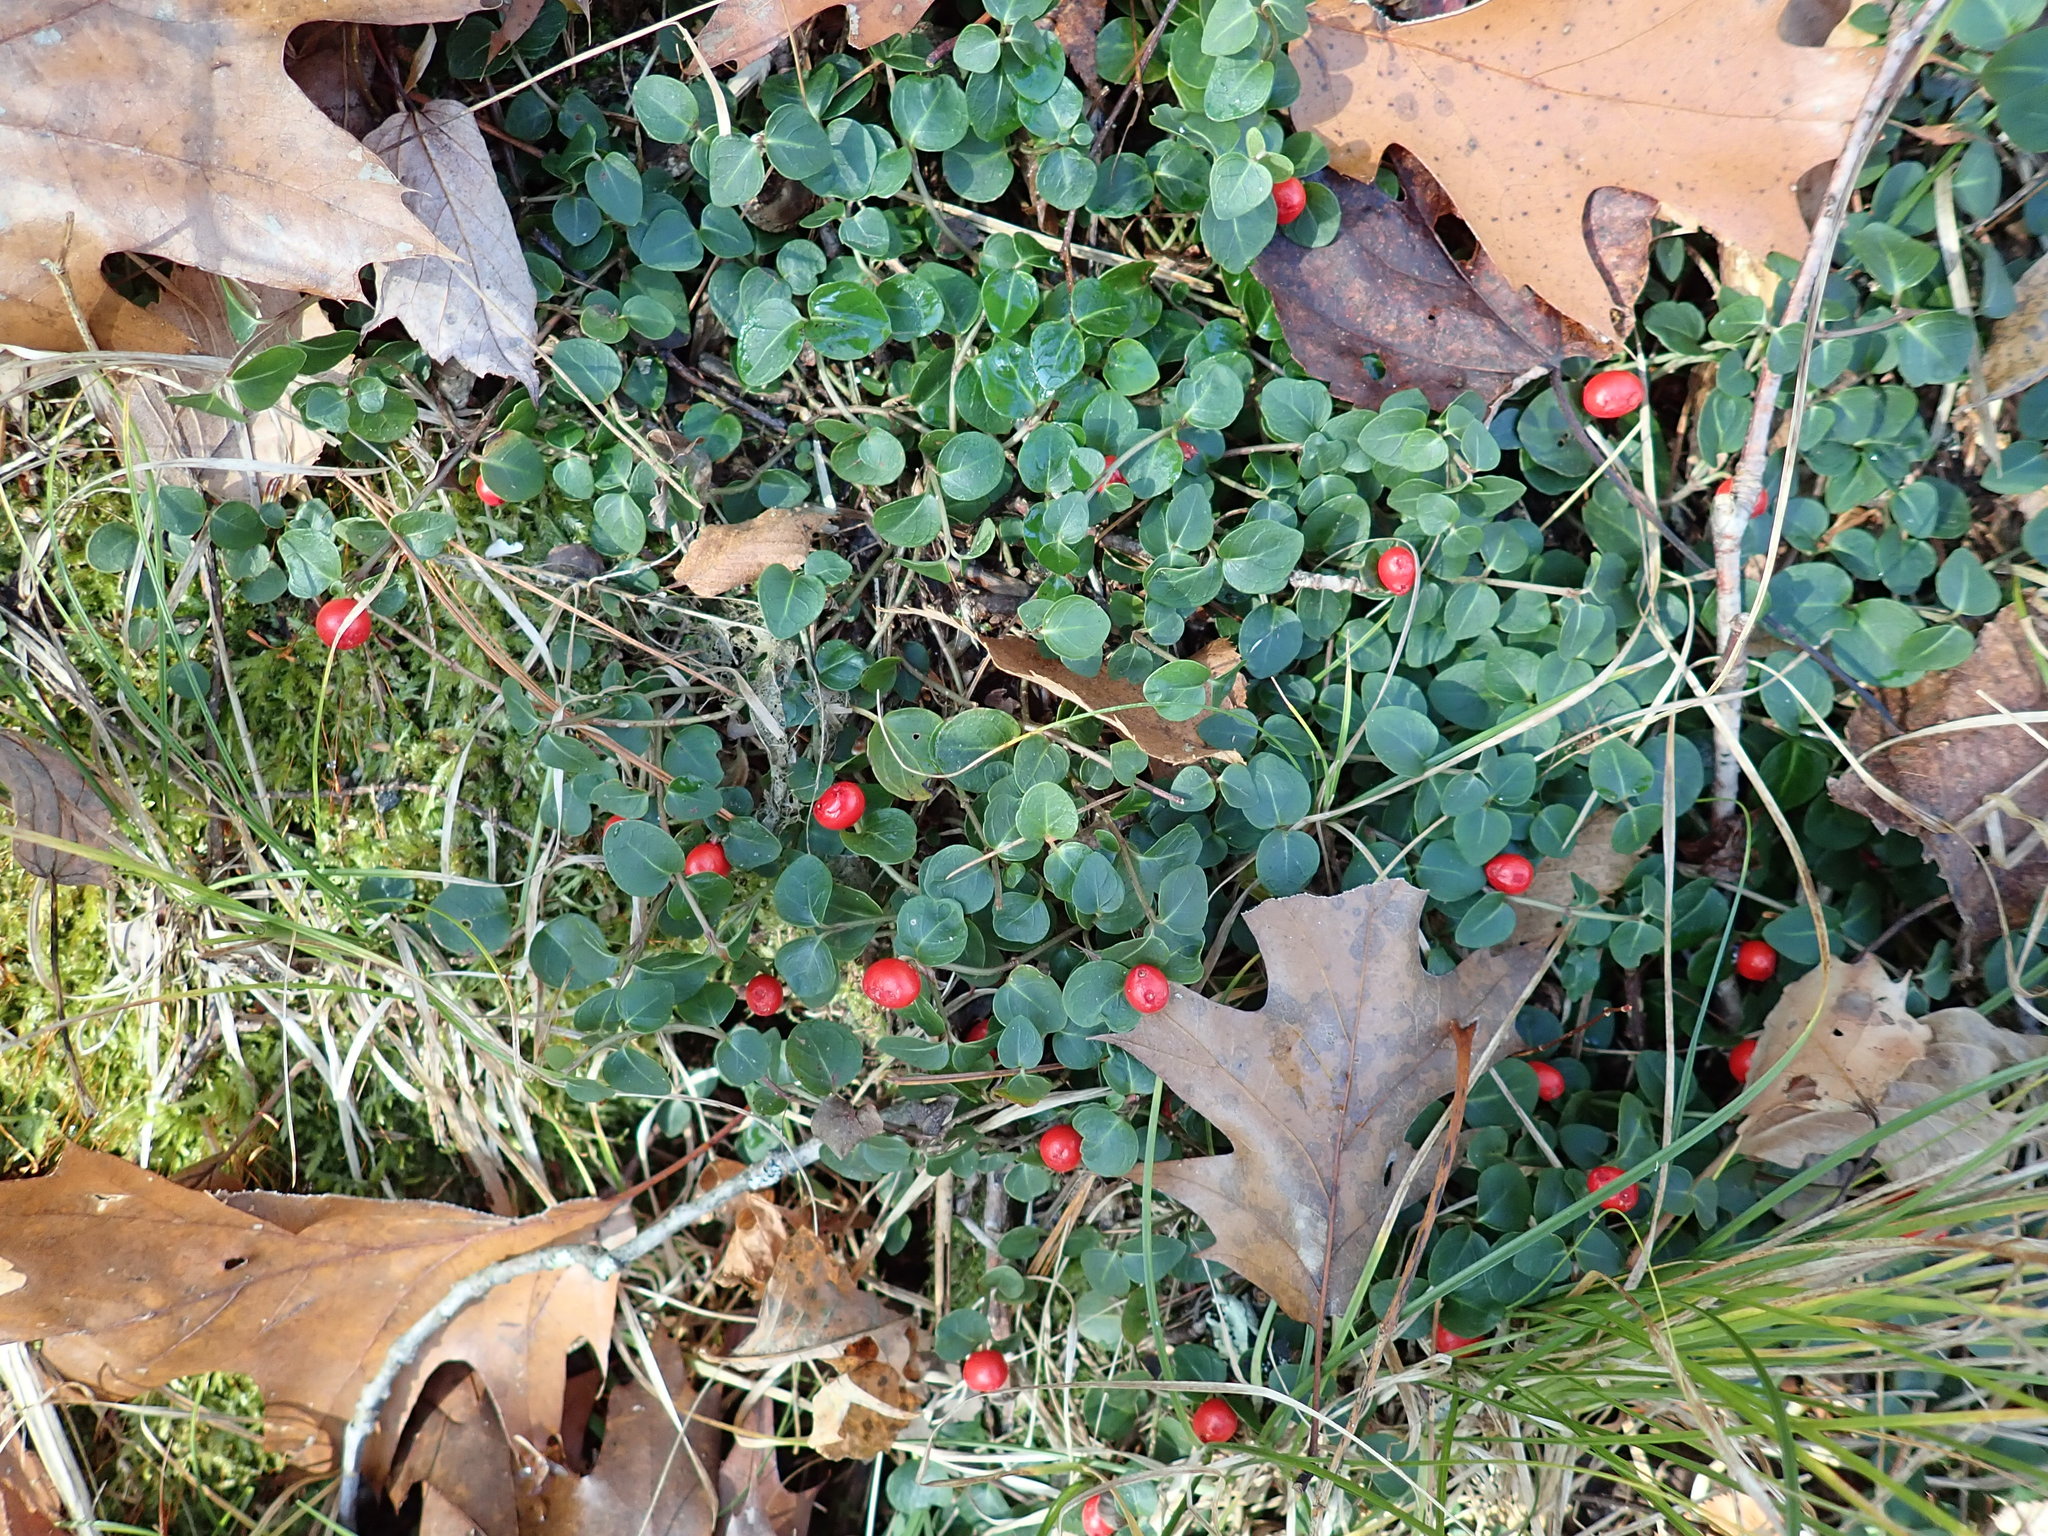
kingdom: Plantae
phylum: Tracheophyta
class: Magnoliopsida
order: Gentianales
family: Rubiaceae
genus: Mitchella
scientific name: Mitchella repens
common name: Partridge-berry
